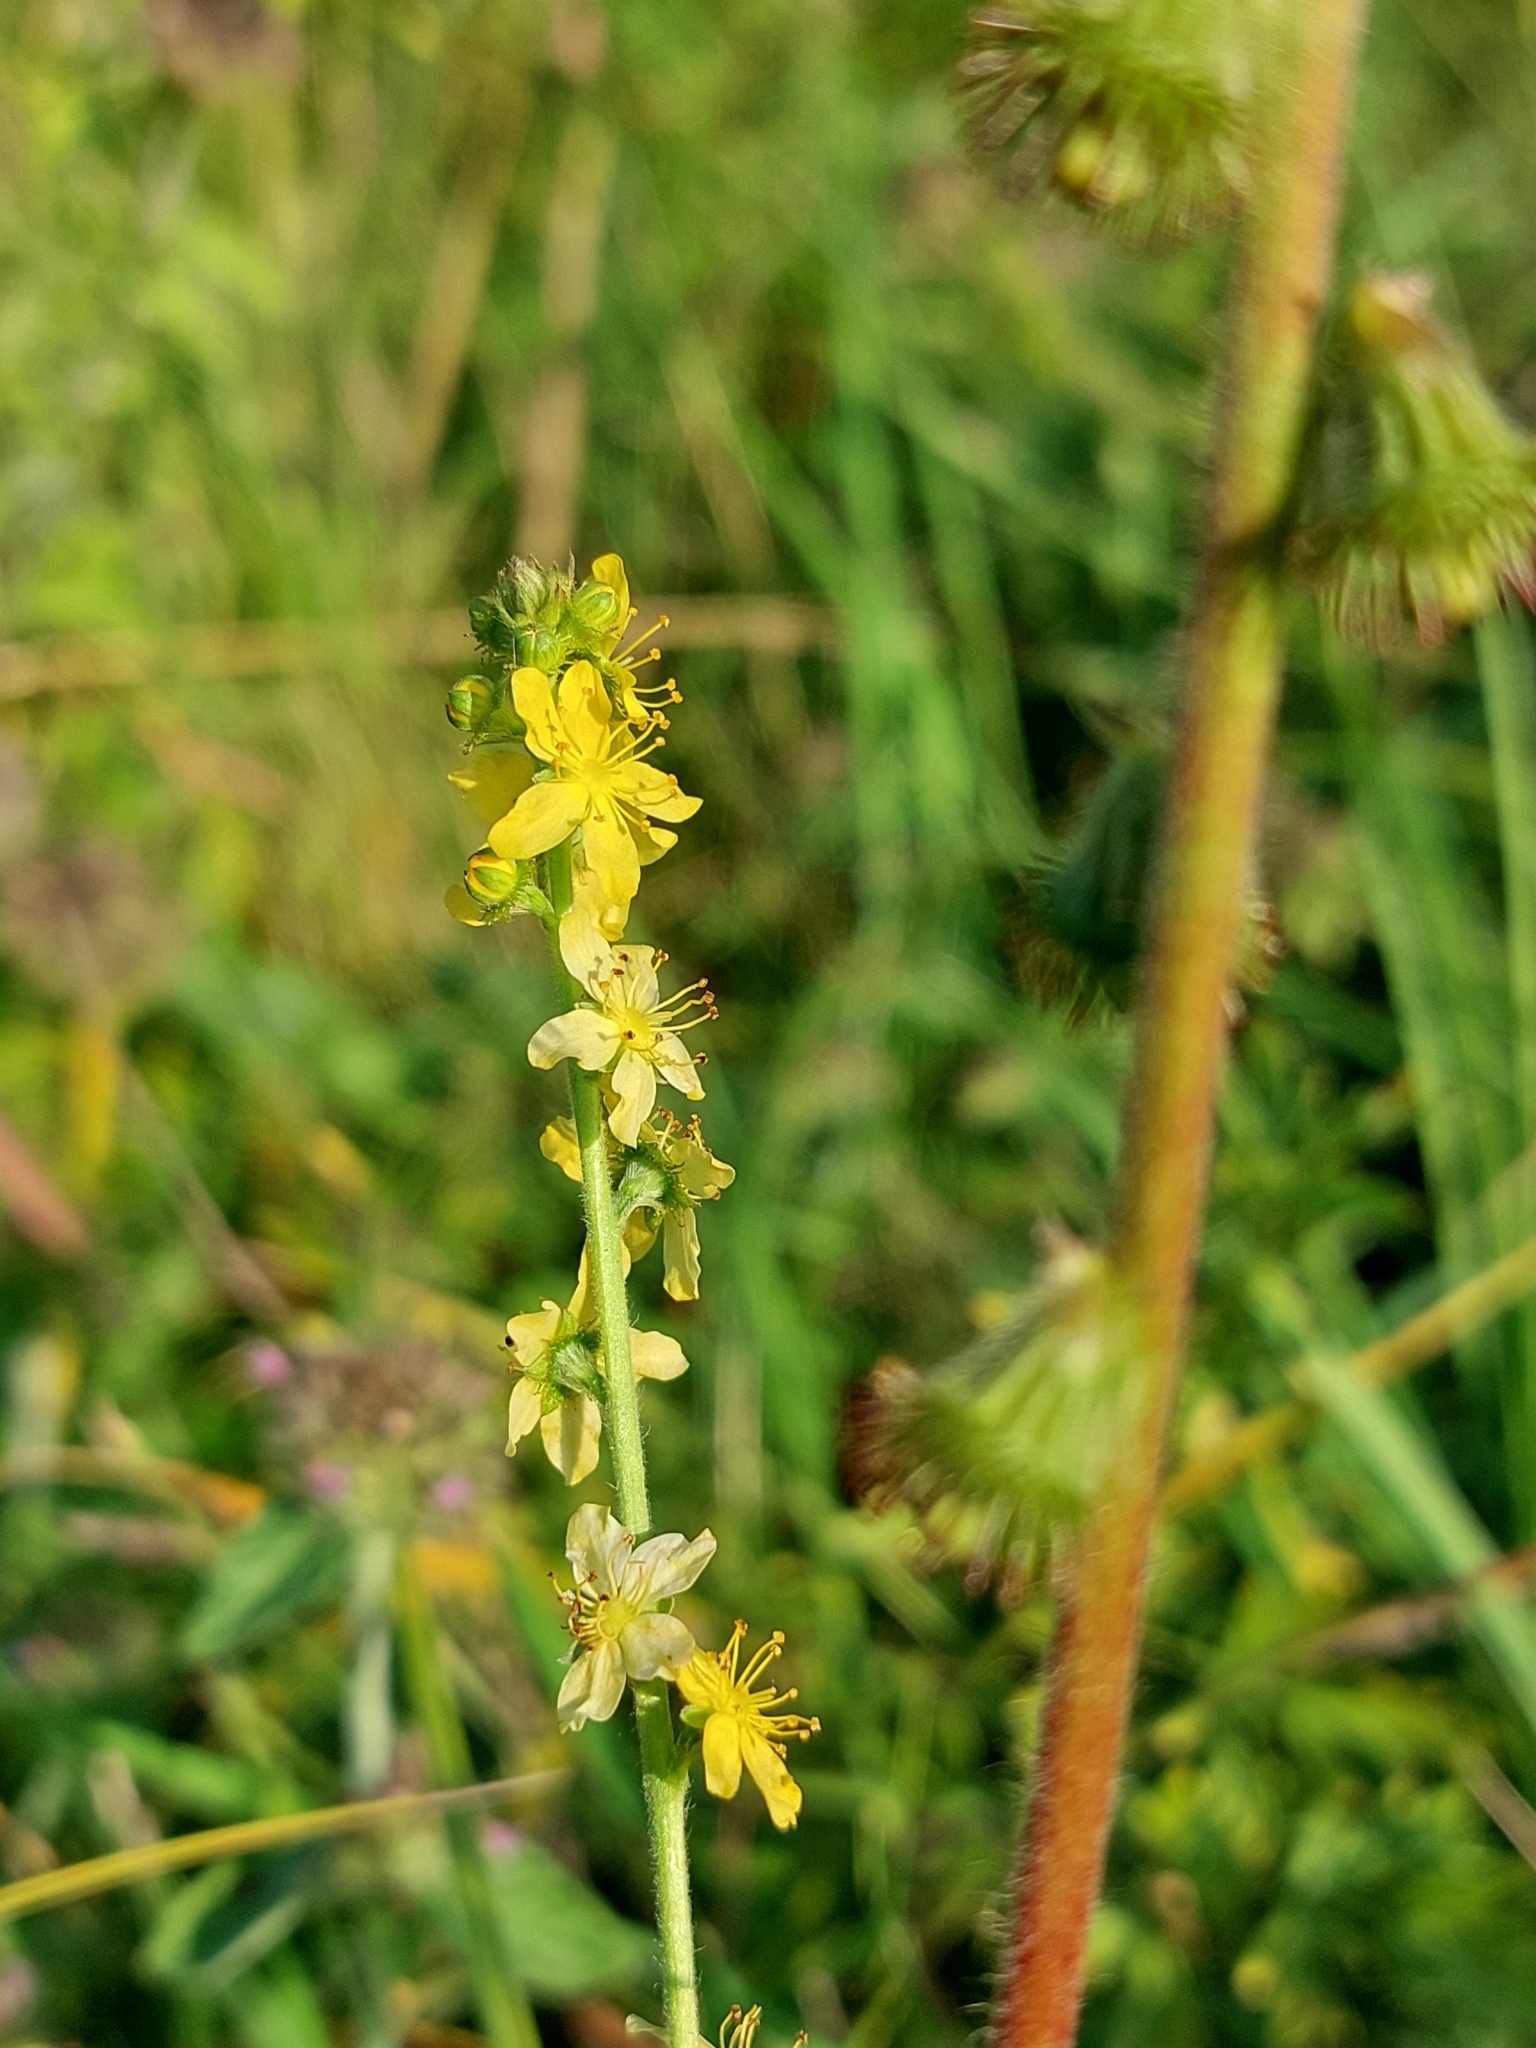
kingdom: Plantae
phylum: Tracheophyta
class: Magnoliopsida
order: Rosales
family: Rosaceae
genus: Agrimonia
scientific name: Agrimonia eupatoria
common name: Agrimony
